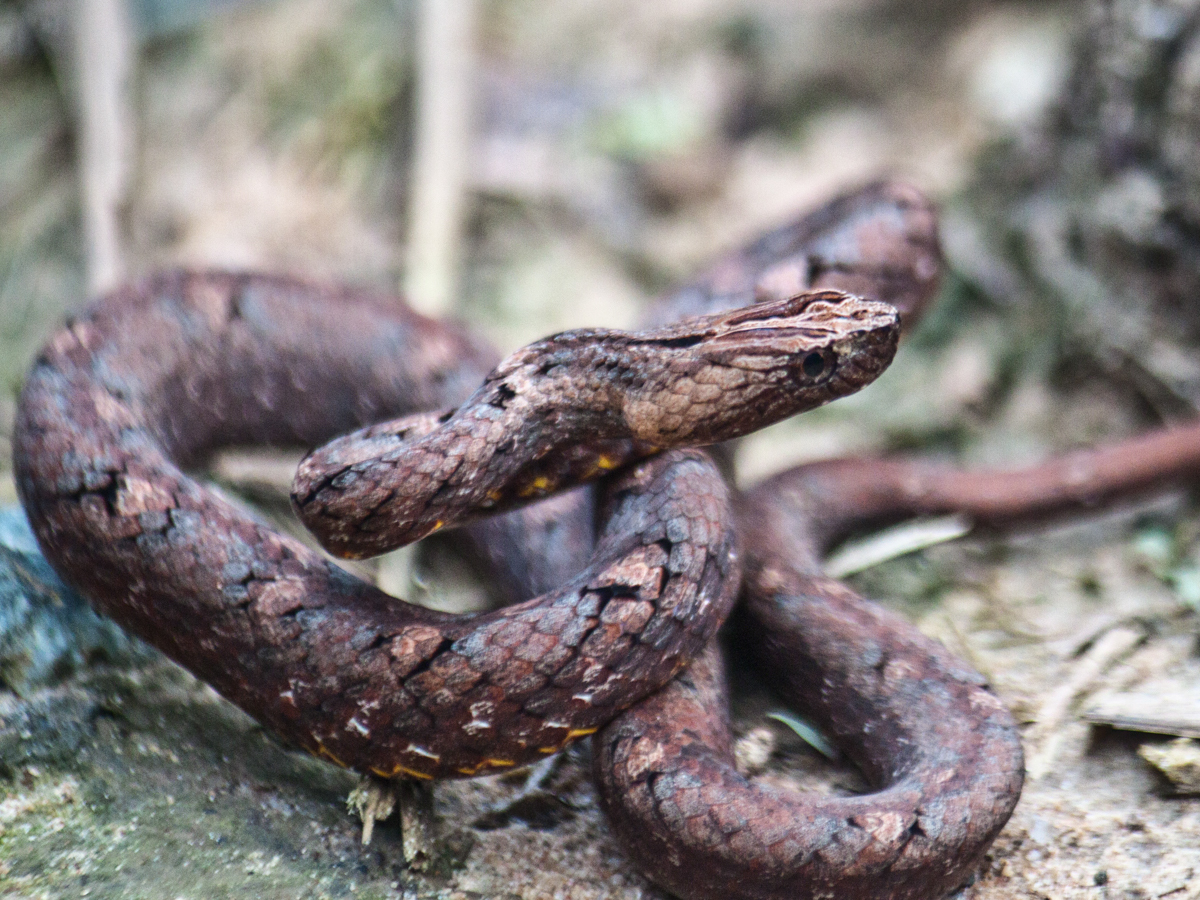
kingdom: Animalia
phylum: Chordata
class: Squamata
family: Pseudaspididae
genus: Psammodynastes
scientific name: Psammodynastes pulverulentus
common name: Common mock viper
